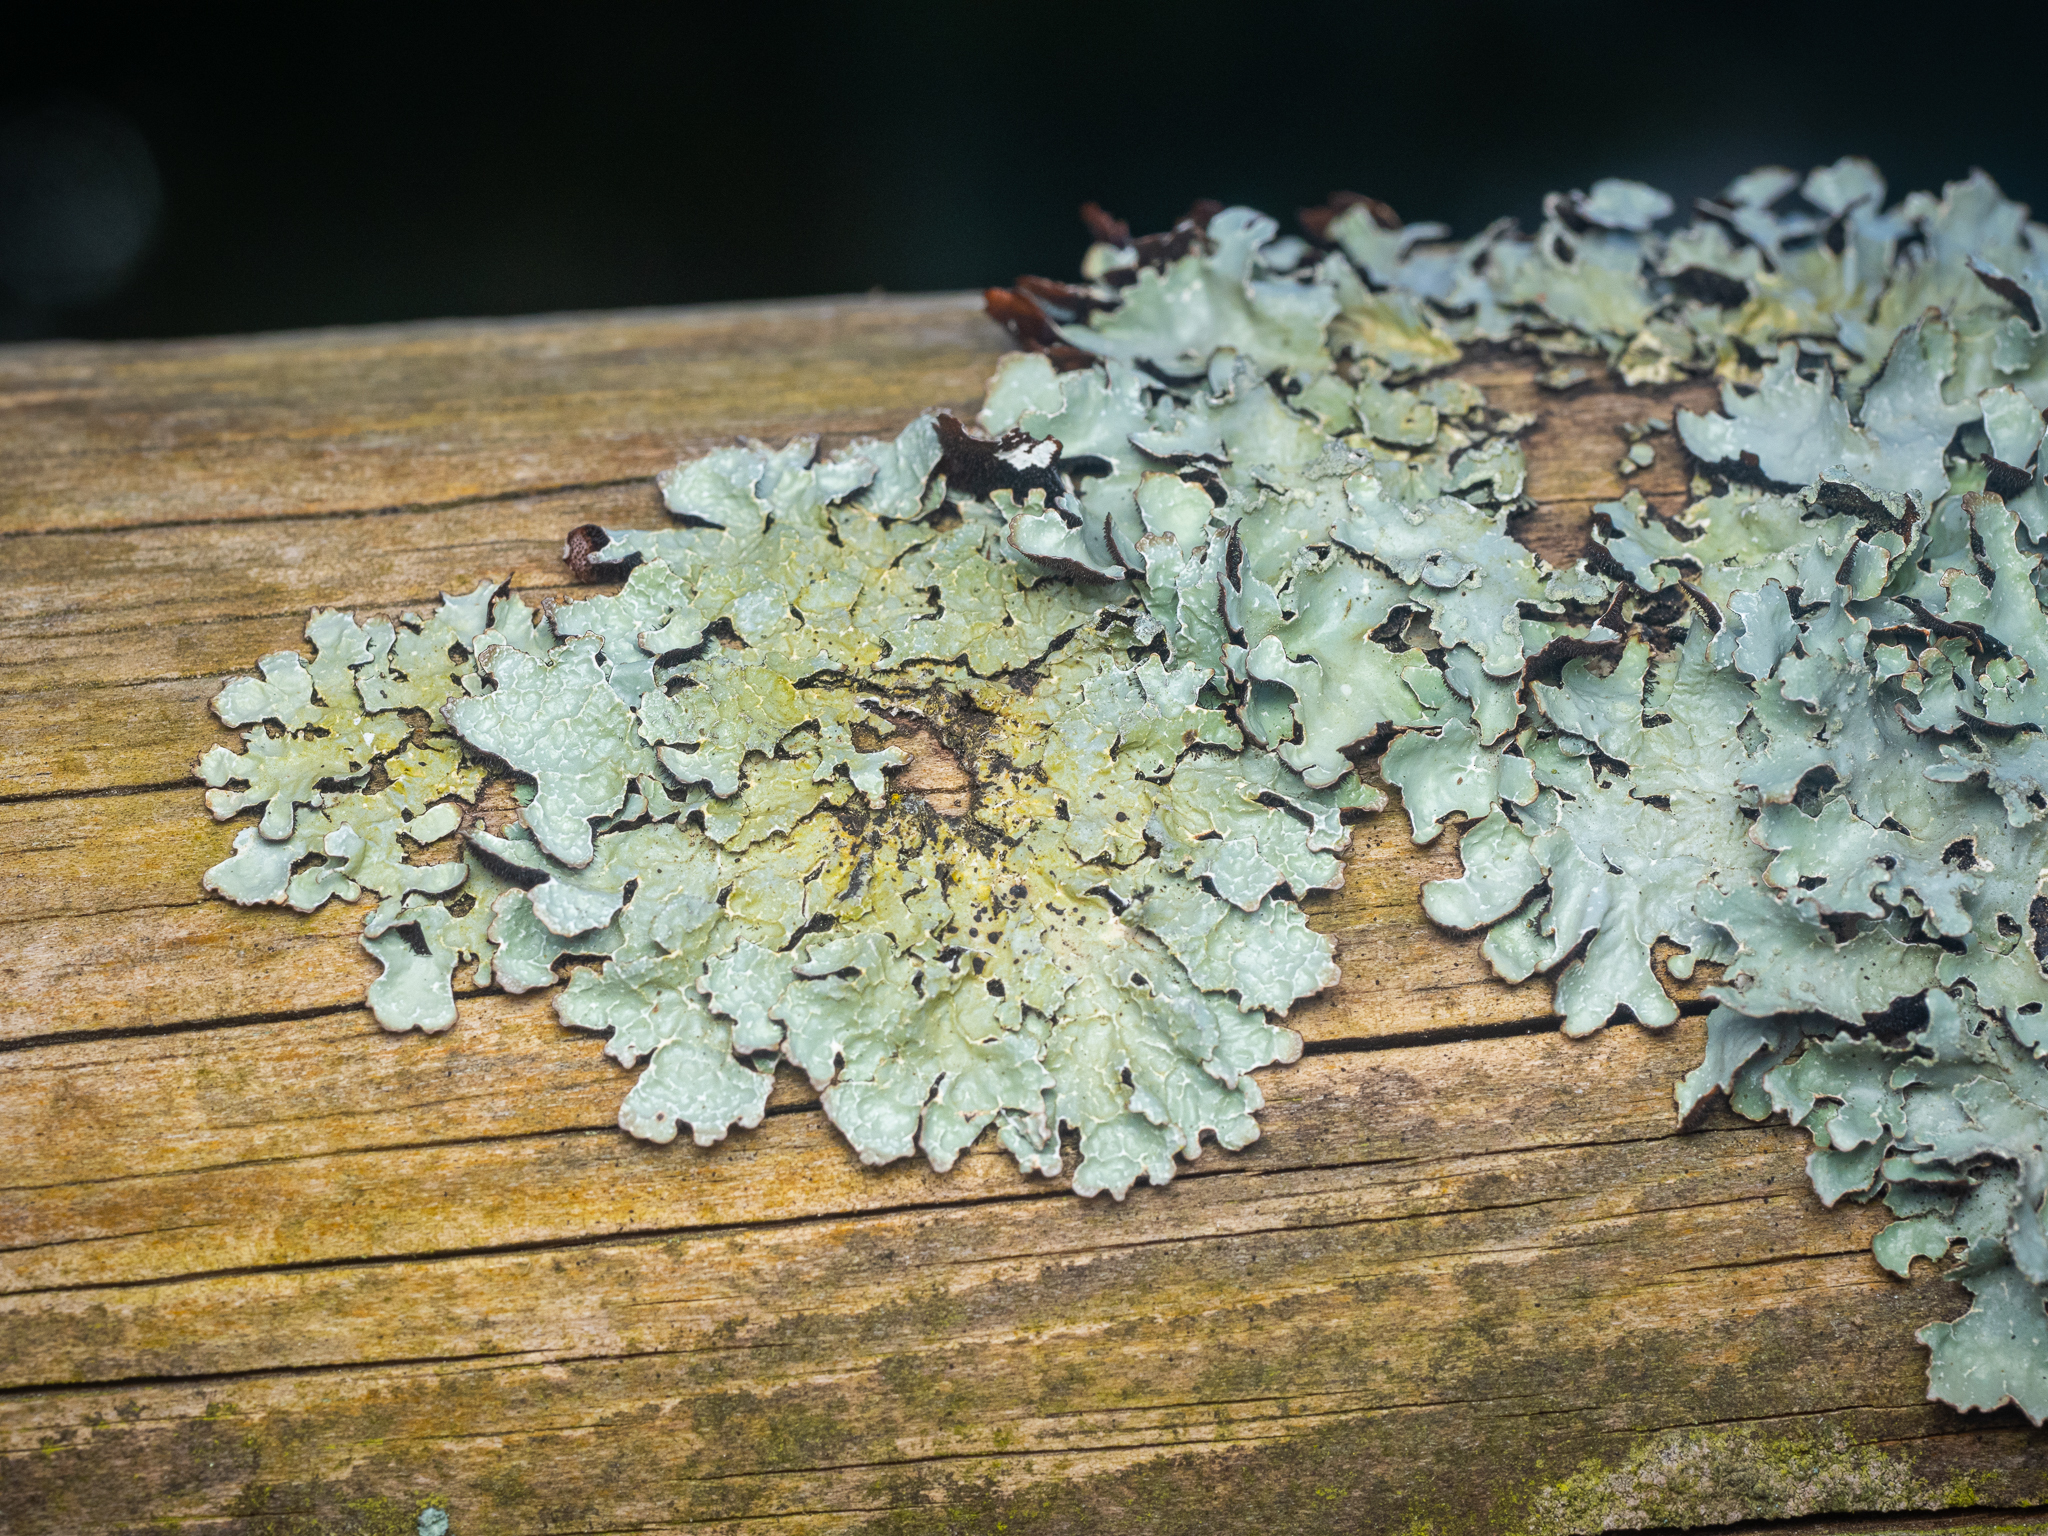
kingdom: Fungi
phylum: Ascomycota
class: Lecanoromycetes
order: Lecanorales
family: Parmeliaceae
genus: Parmelia
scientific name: Parmelia sulcata
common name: Netted shield lichen
